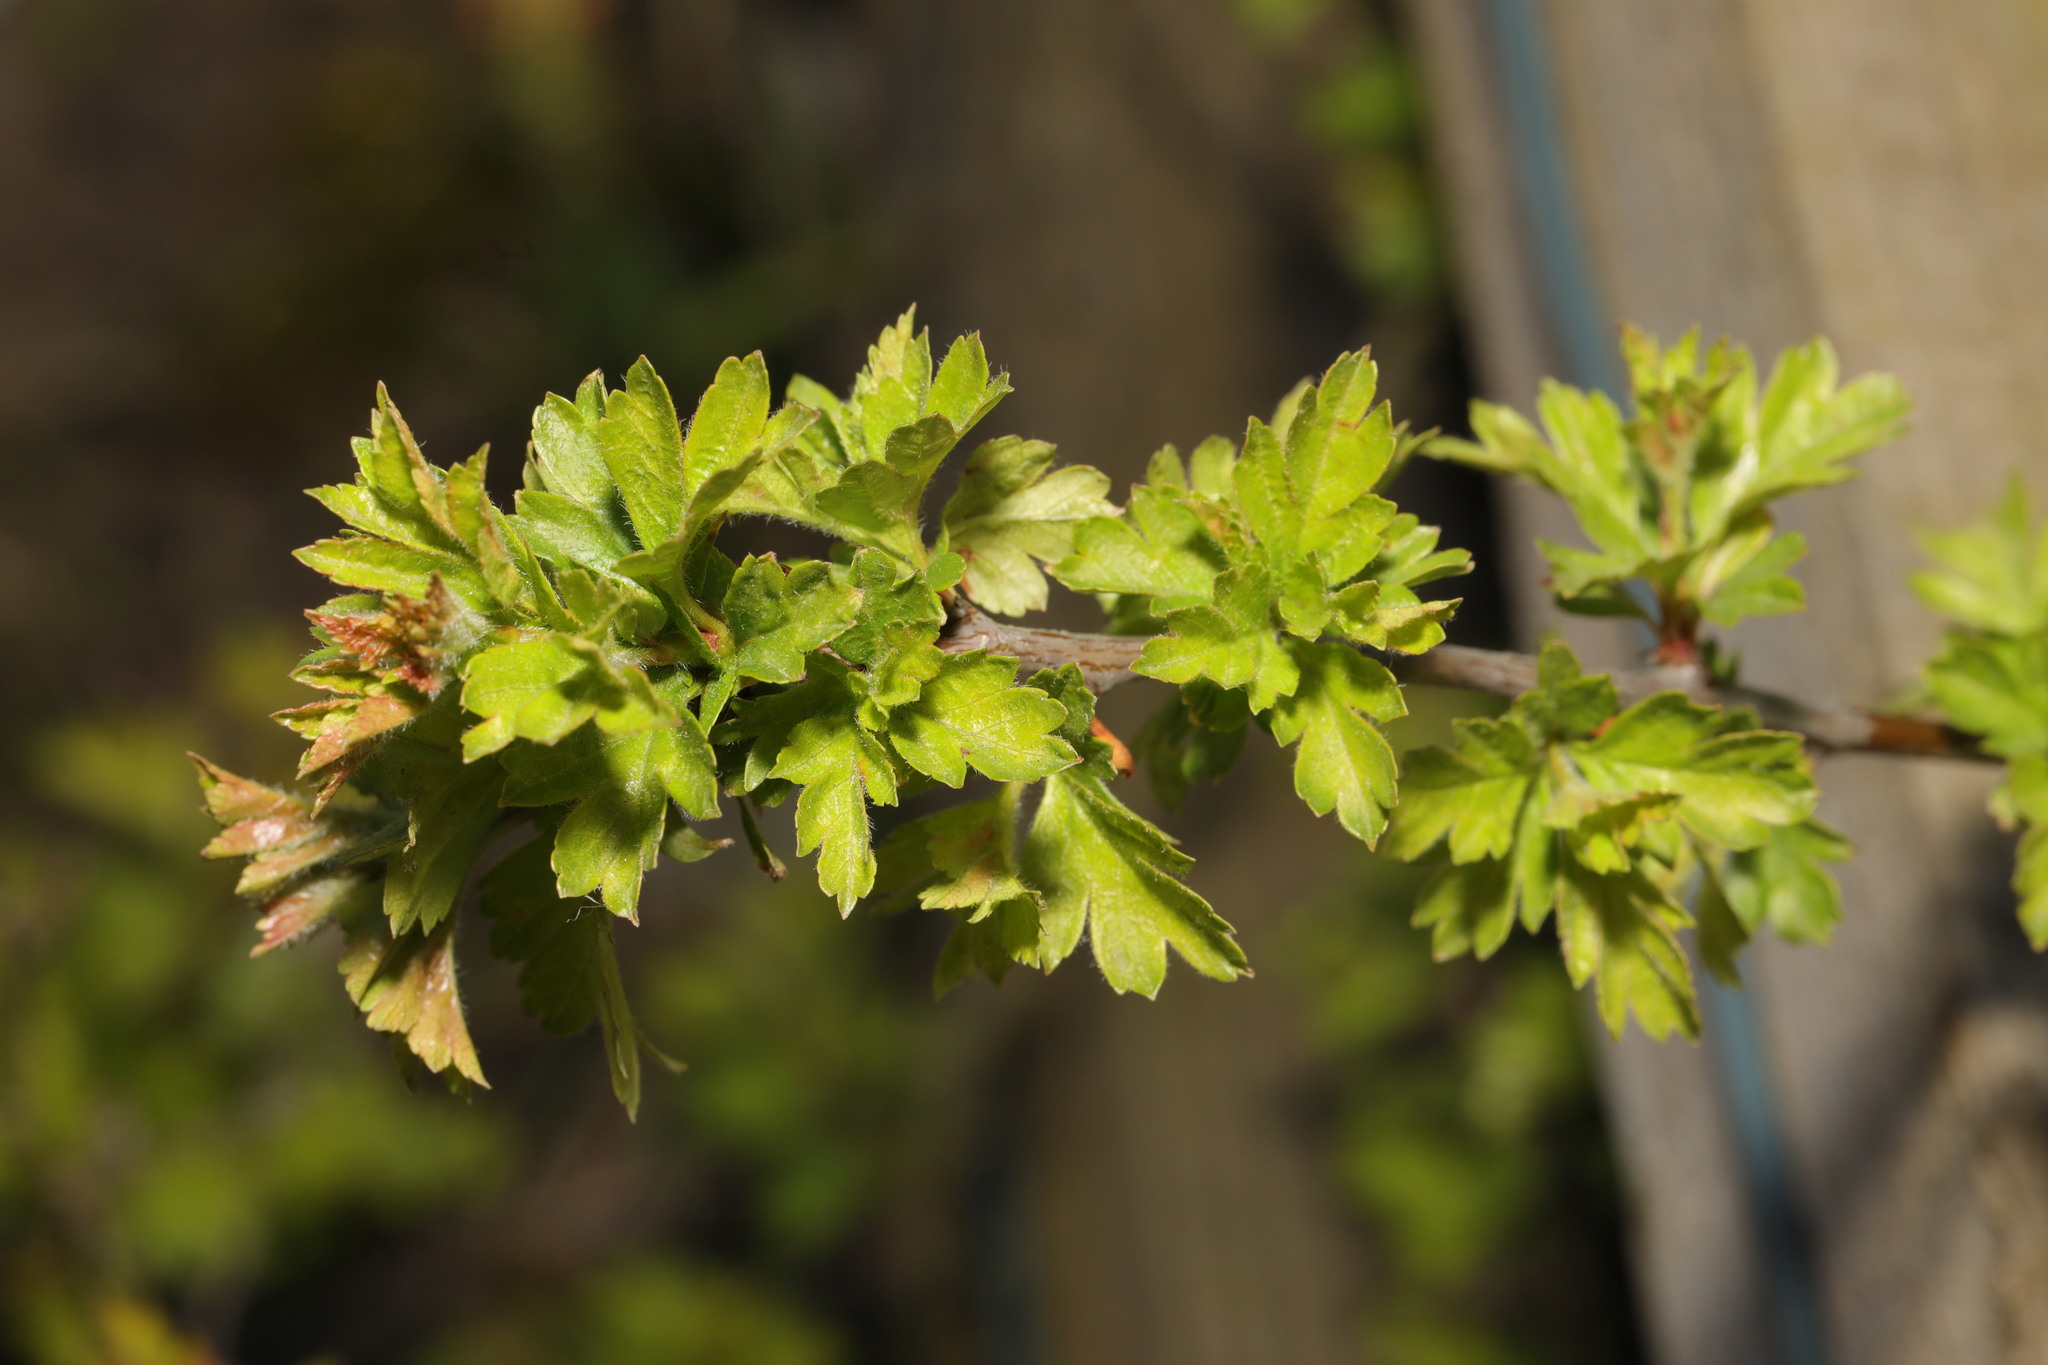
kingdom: Plantae
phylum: Tracheophyta
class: Magnoliopsida
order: Rosales
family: Rosaceae
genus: Crataegus
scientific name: Crataegus monogyna
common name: Hawthorn
